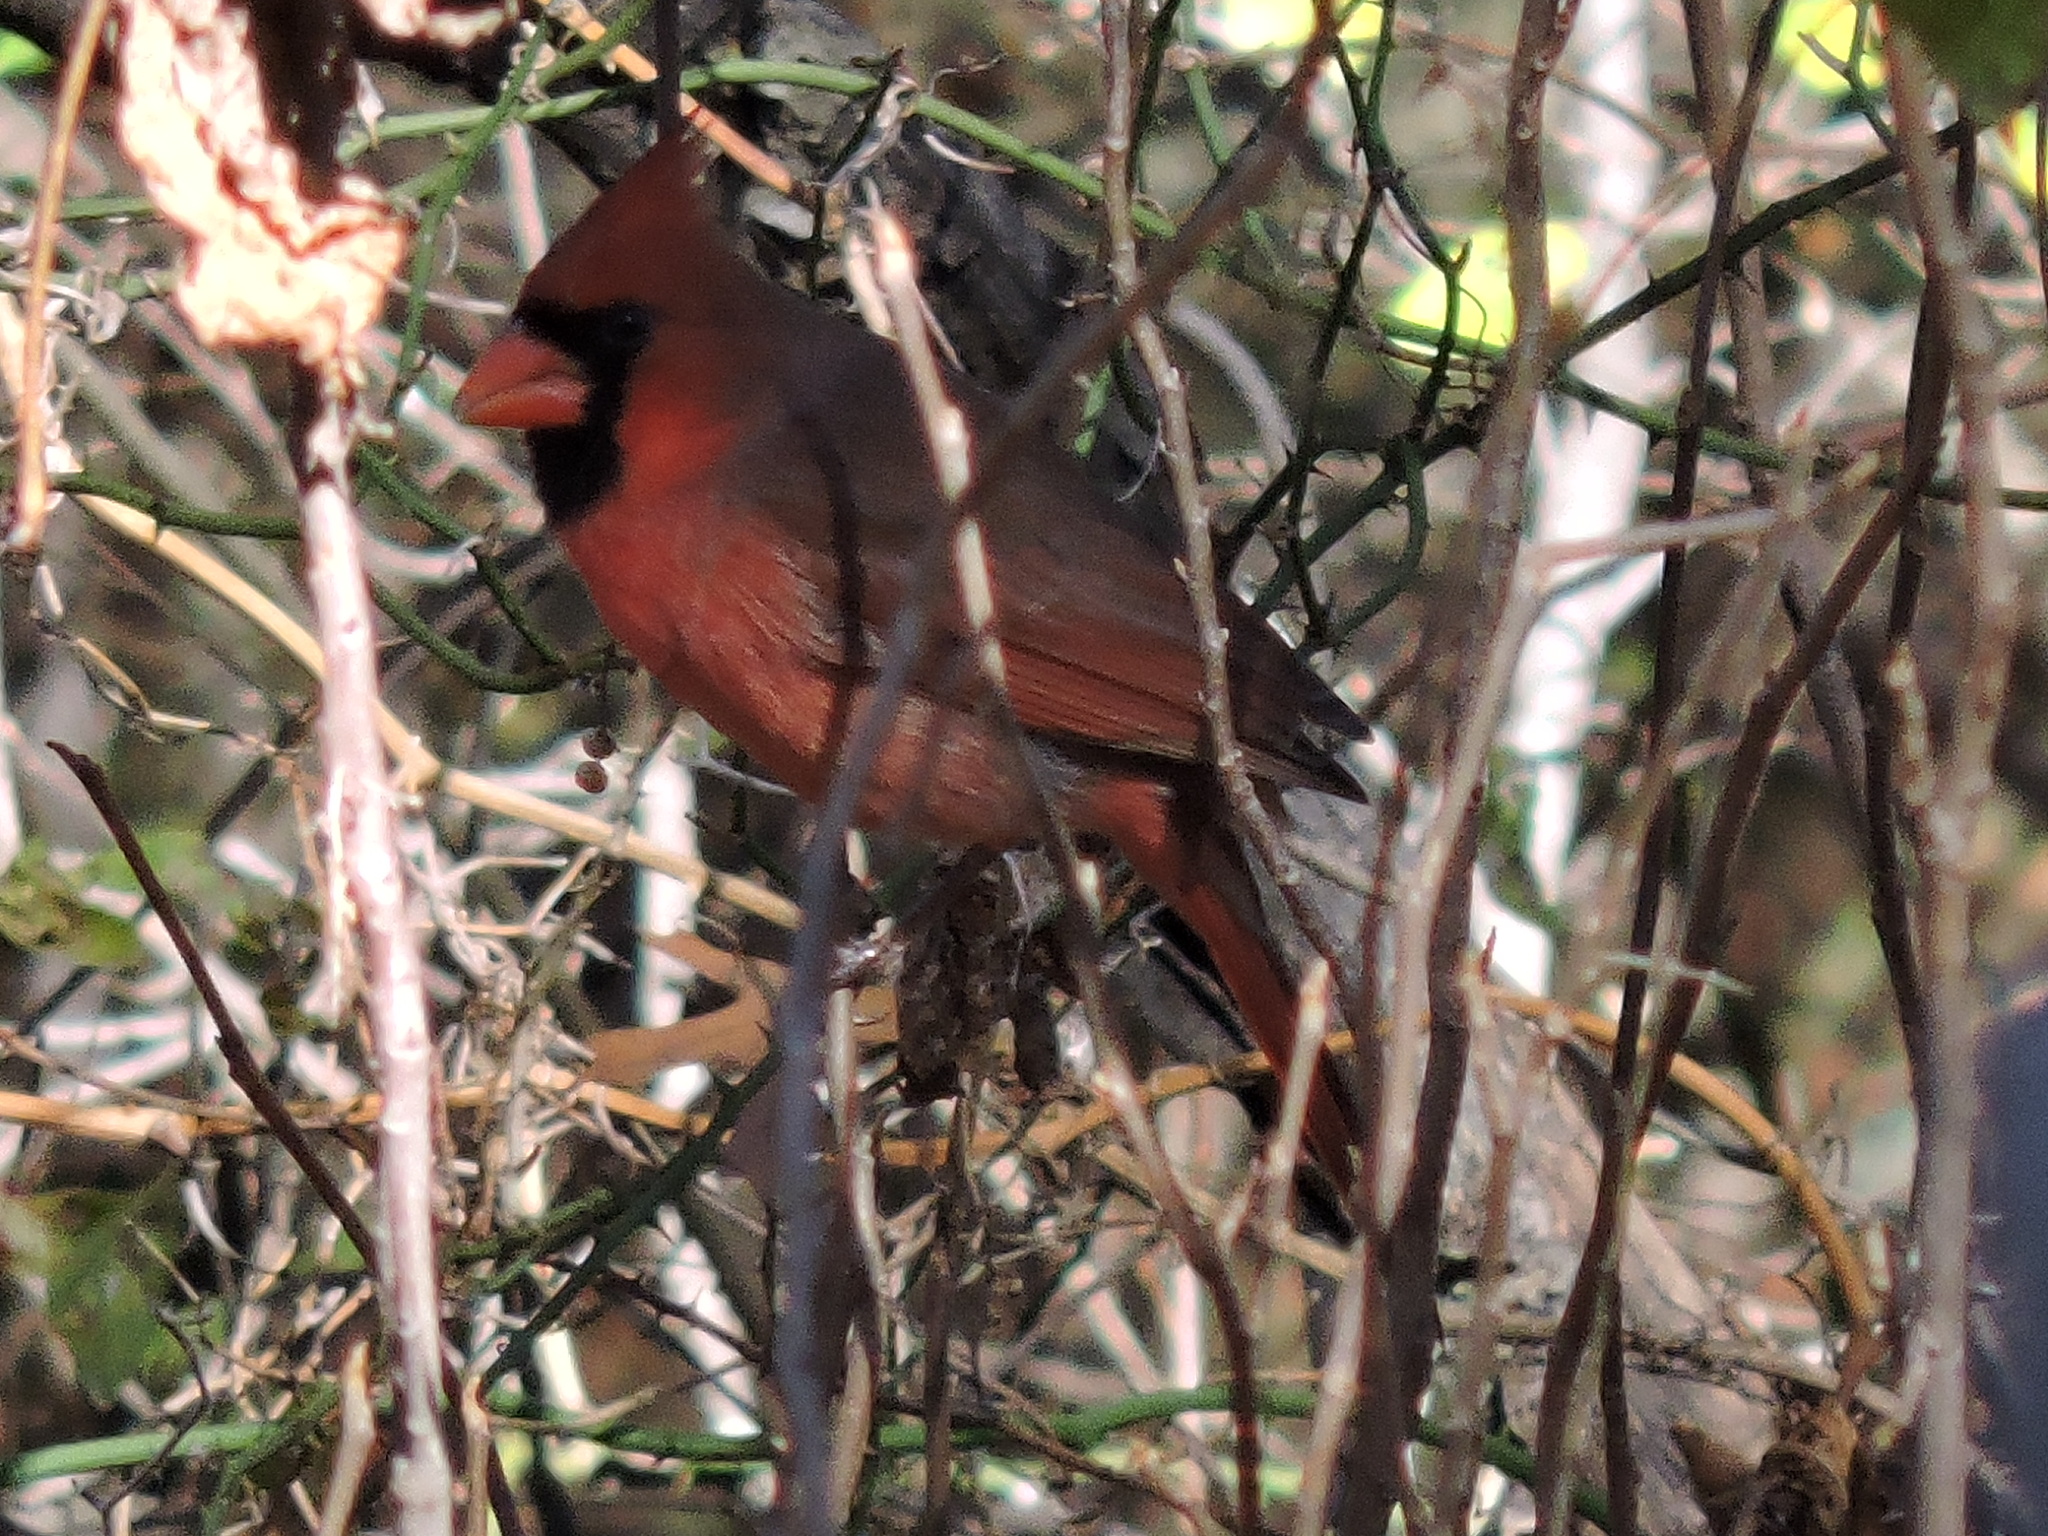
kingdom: Animalia
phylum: Chordata
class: Aves
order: Passeriformes
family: Cardinalidae
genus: Cardinalis
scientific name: Cardinalis cardinalis
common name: Northern cardinal
